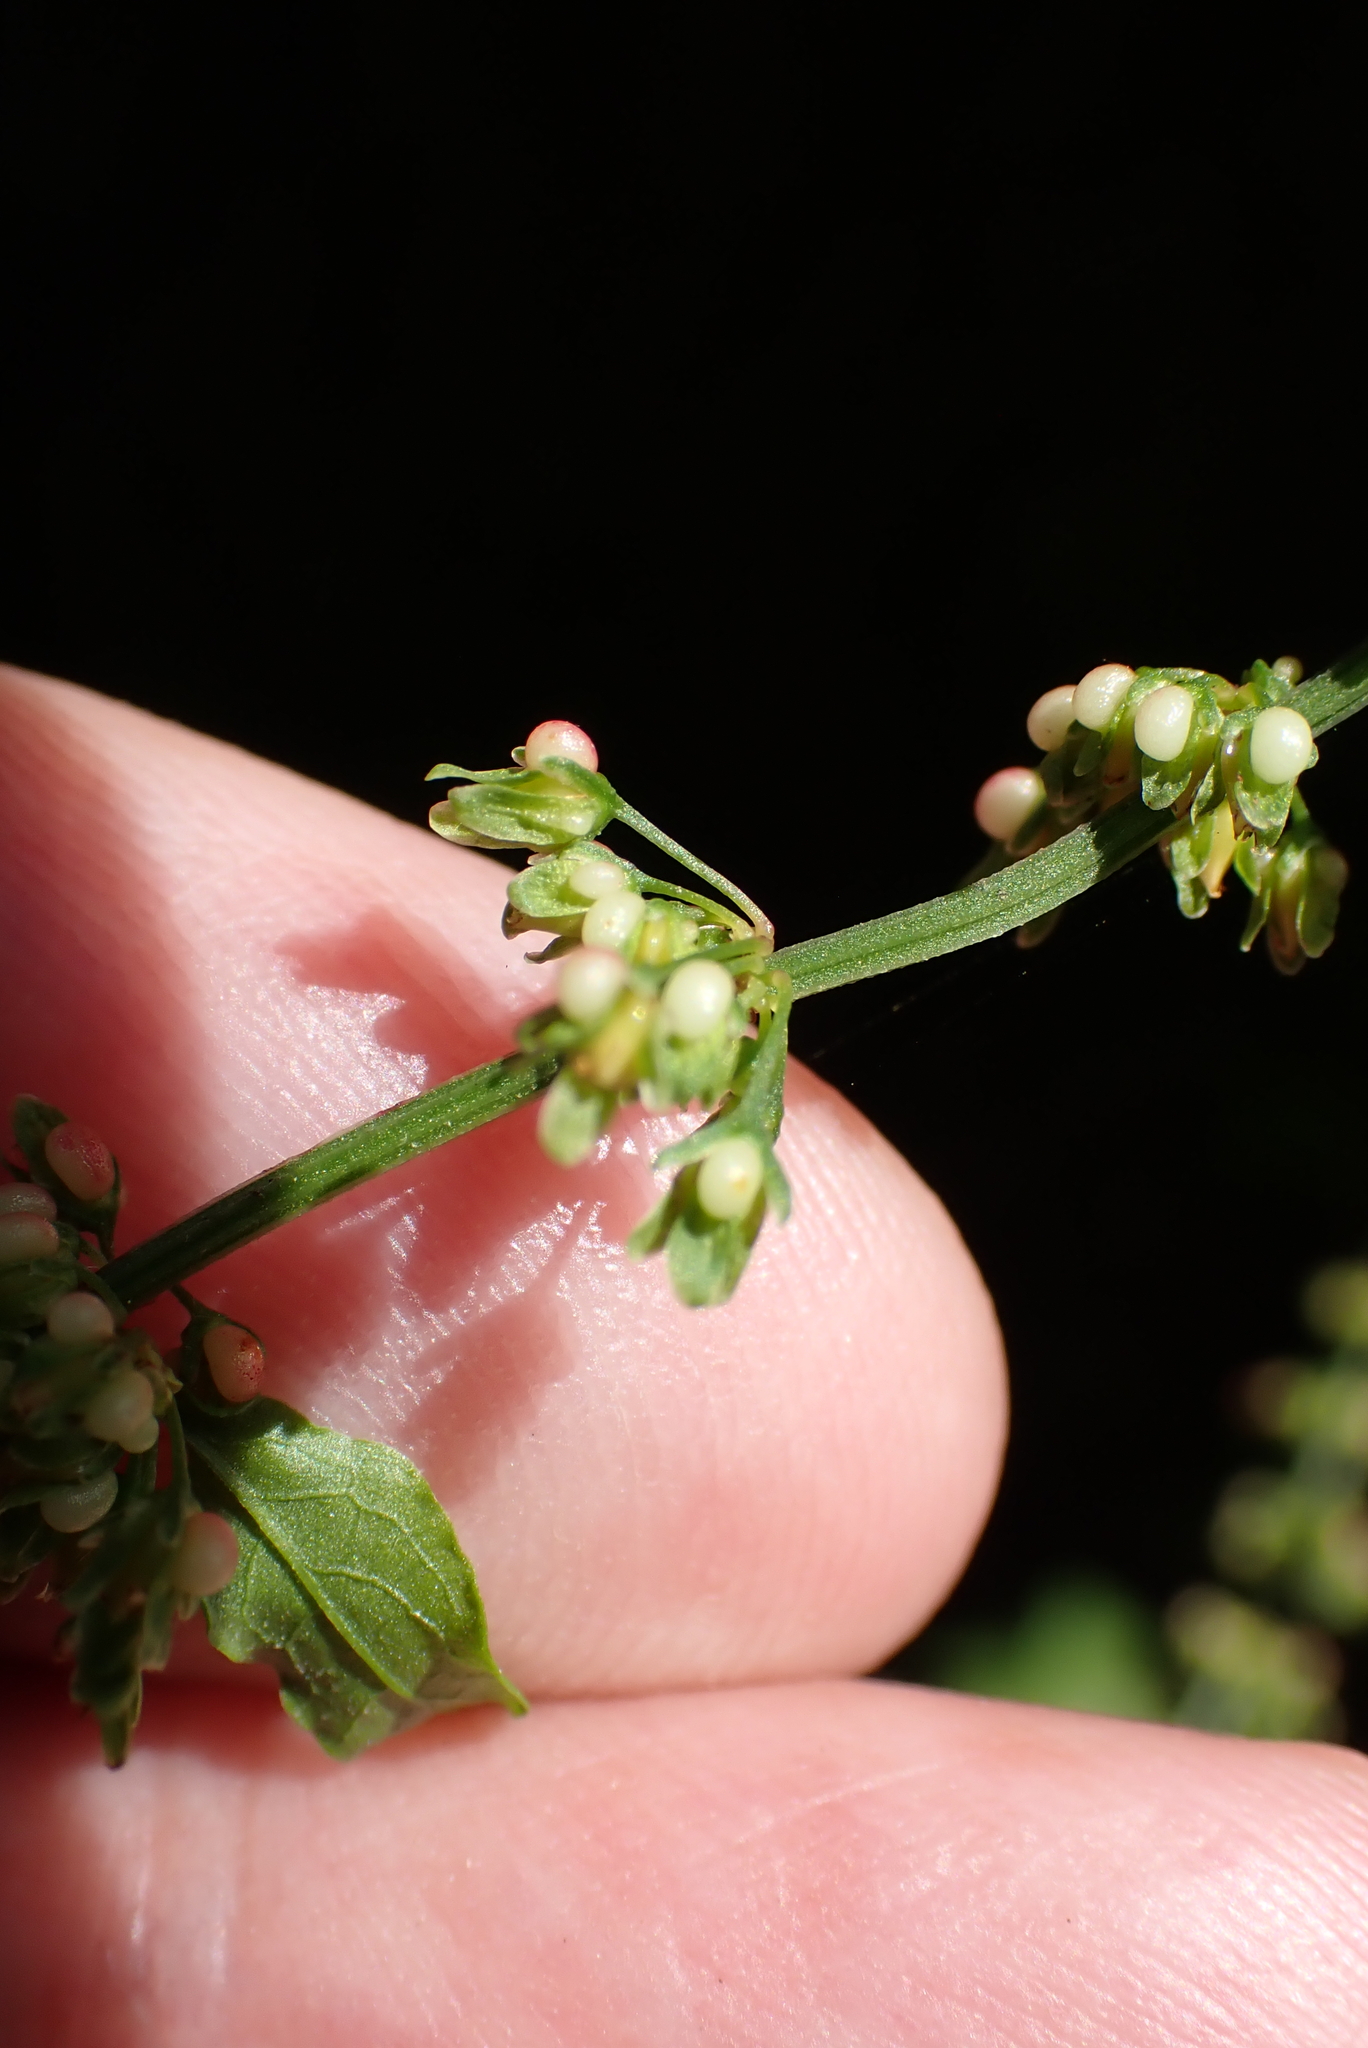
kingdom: Plantae
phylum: Tracheophyta
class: Magnoliopsida
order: Caryophyllales
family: Polygonaceae
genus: Rumex
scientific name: Rumex conglomeratus
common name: Clustered dock
